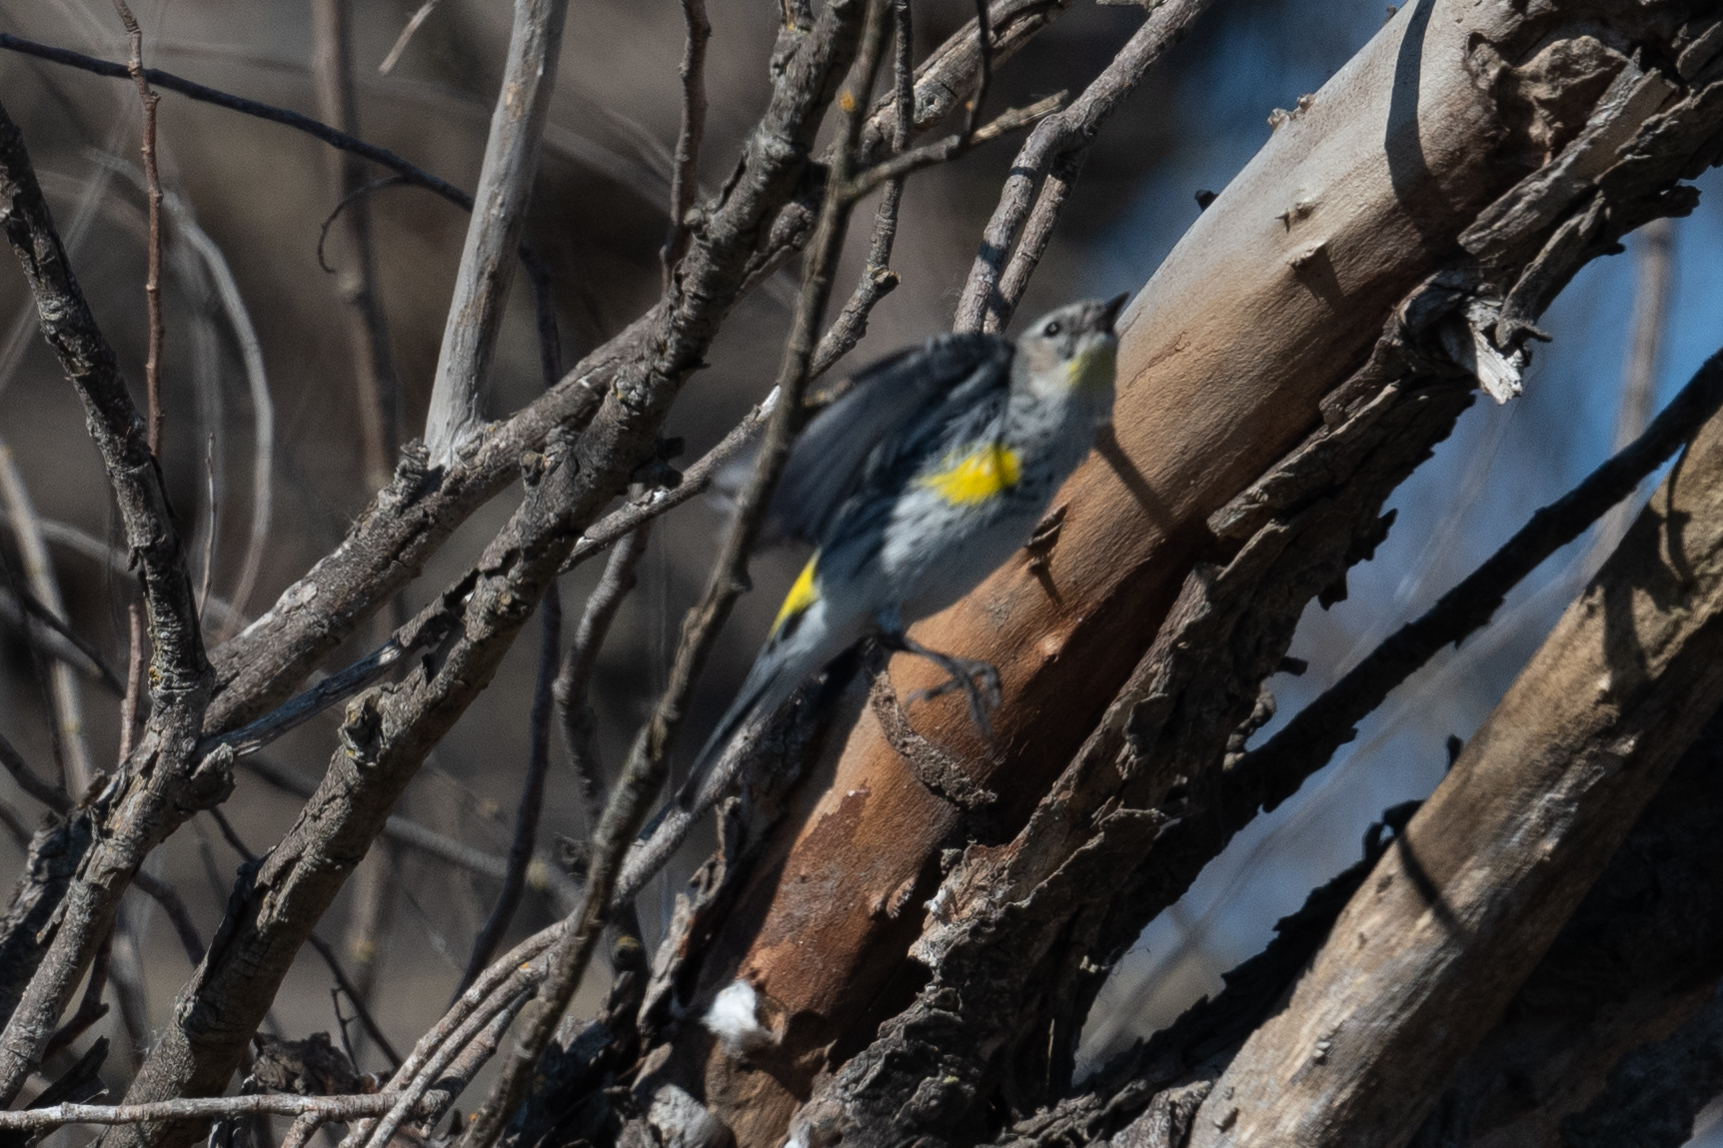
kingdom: Animalia
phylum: Chordata
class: Aves
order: Passeriformes
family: Parulidae
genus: Setophaga
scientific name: Setophaga coronata
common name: Myrtle warbler
